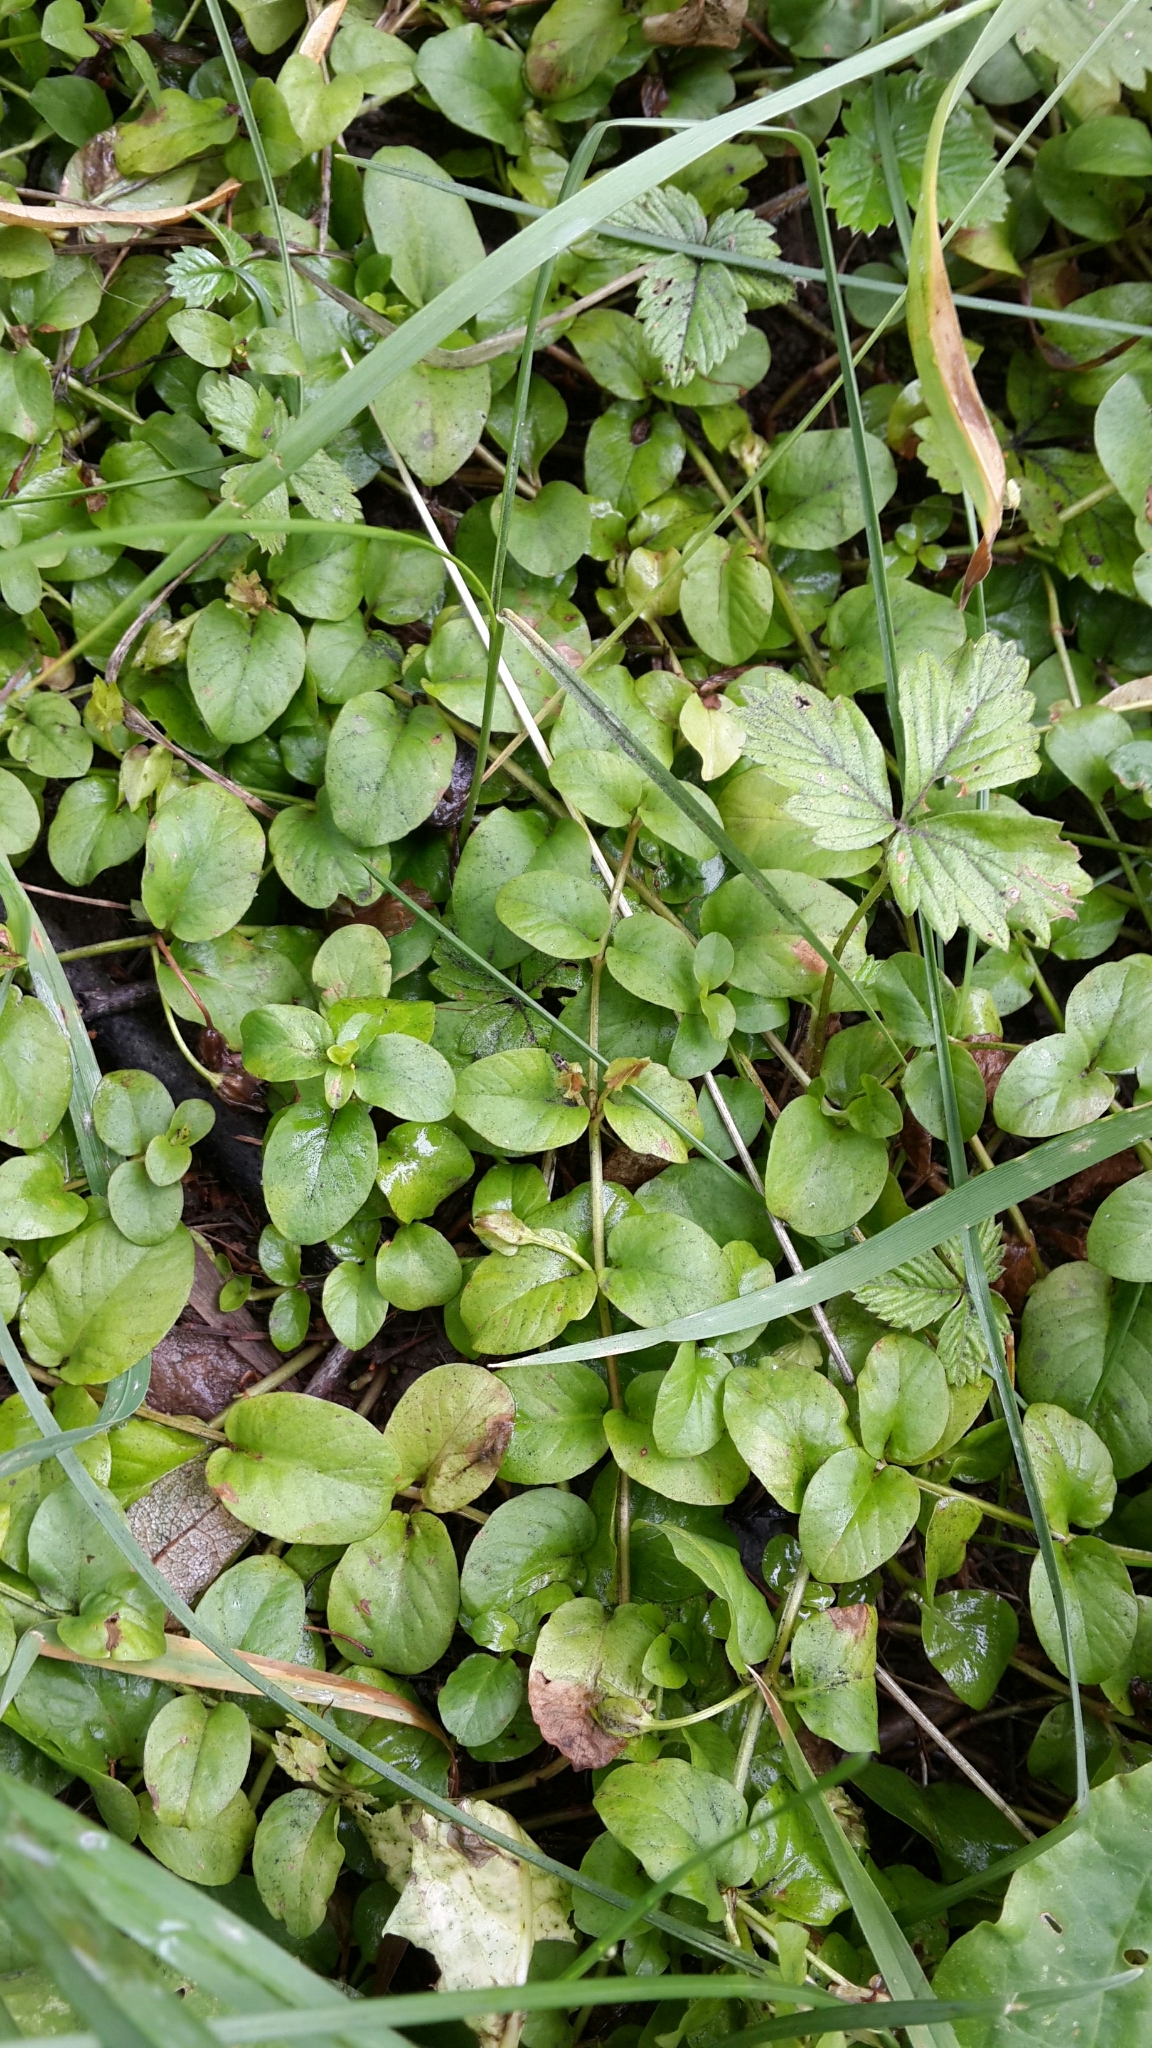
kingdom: Plantae
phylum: Tracheophyta
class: Magnoliopsida
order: Ericales
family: Primulaceae
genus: Lysimachia
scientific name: Lysimachia nummularia
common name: Moneywort
